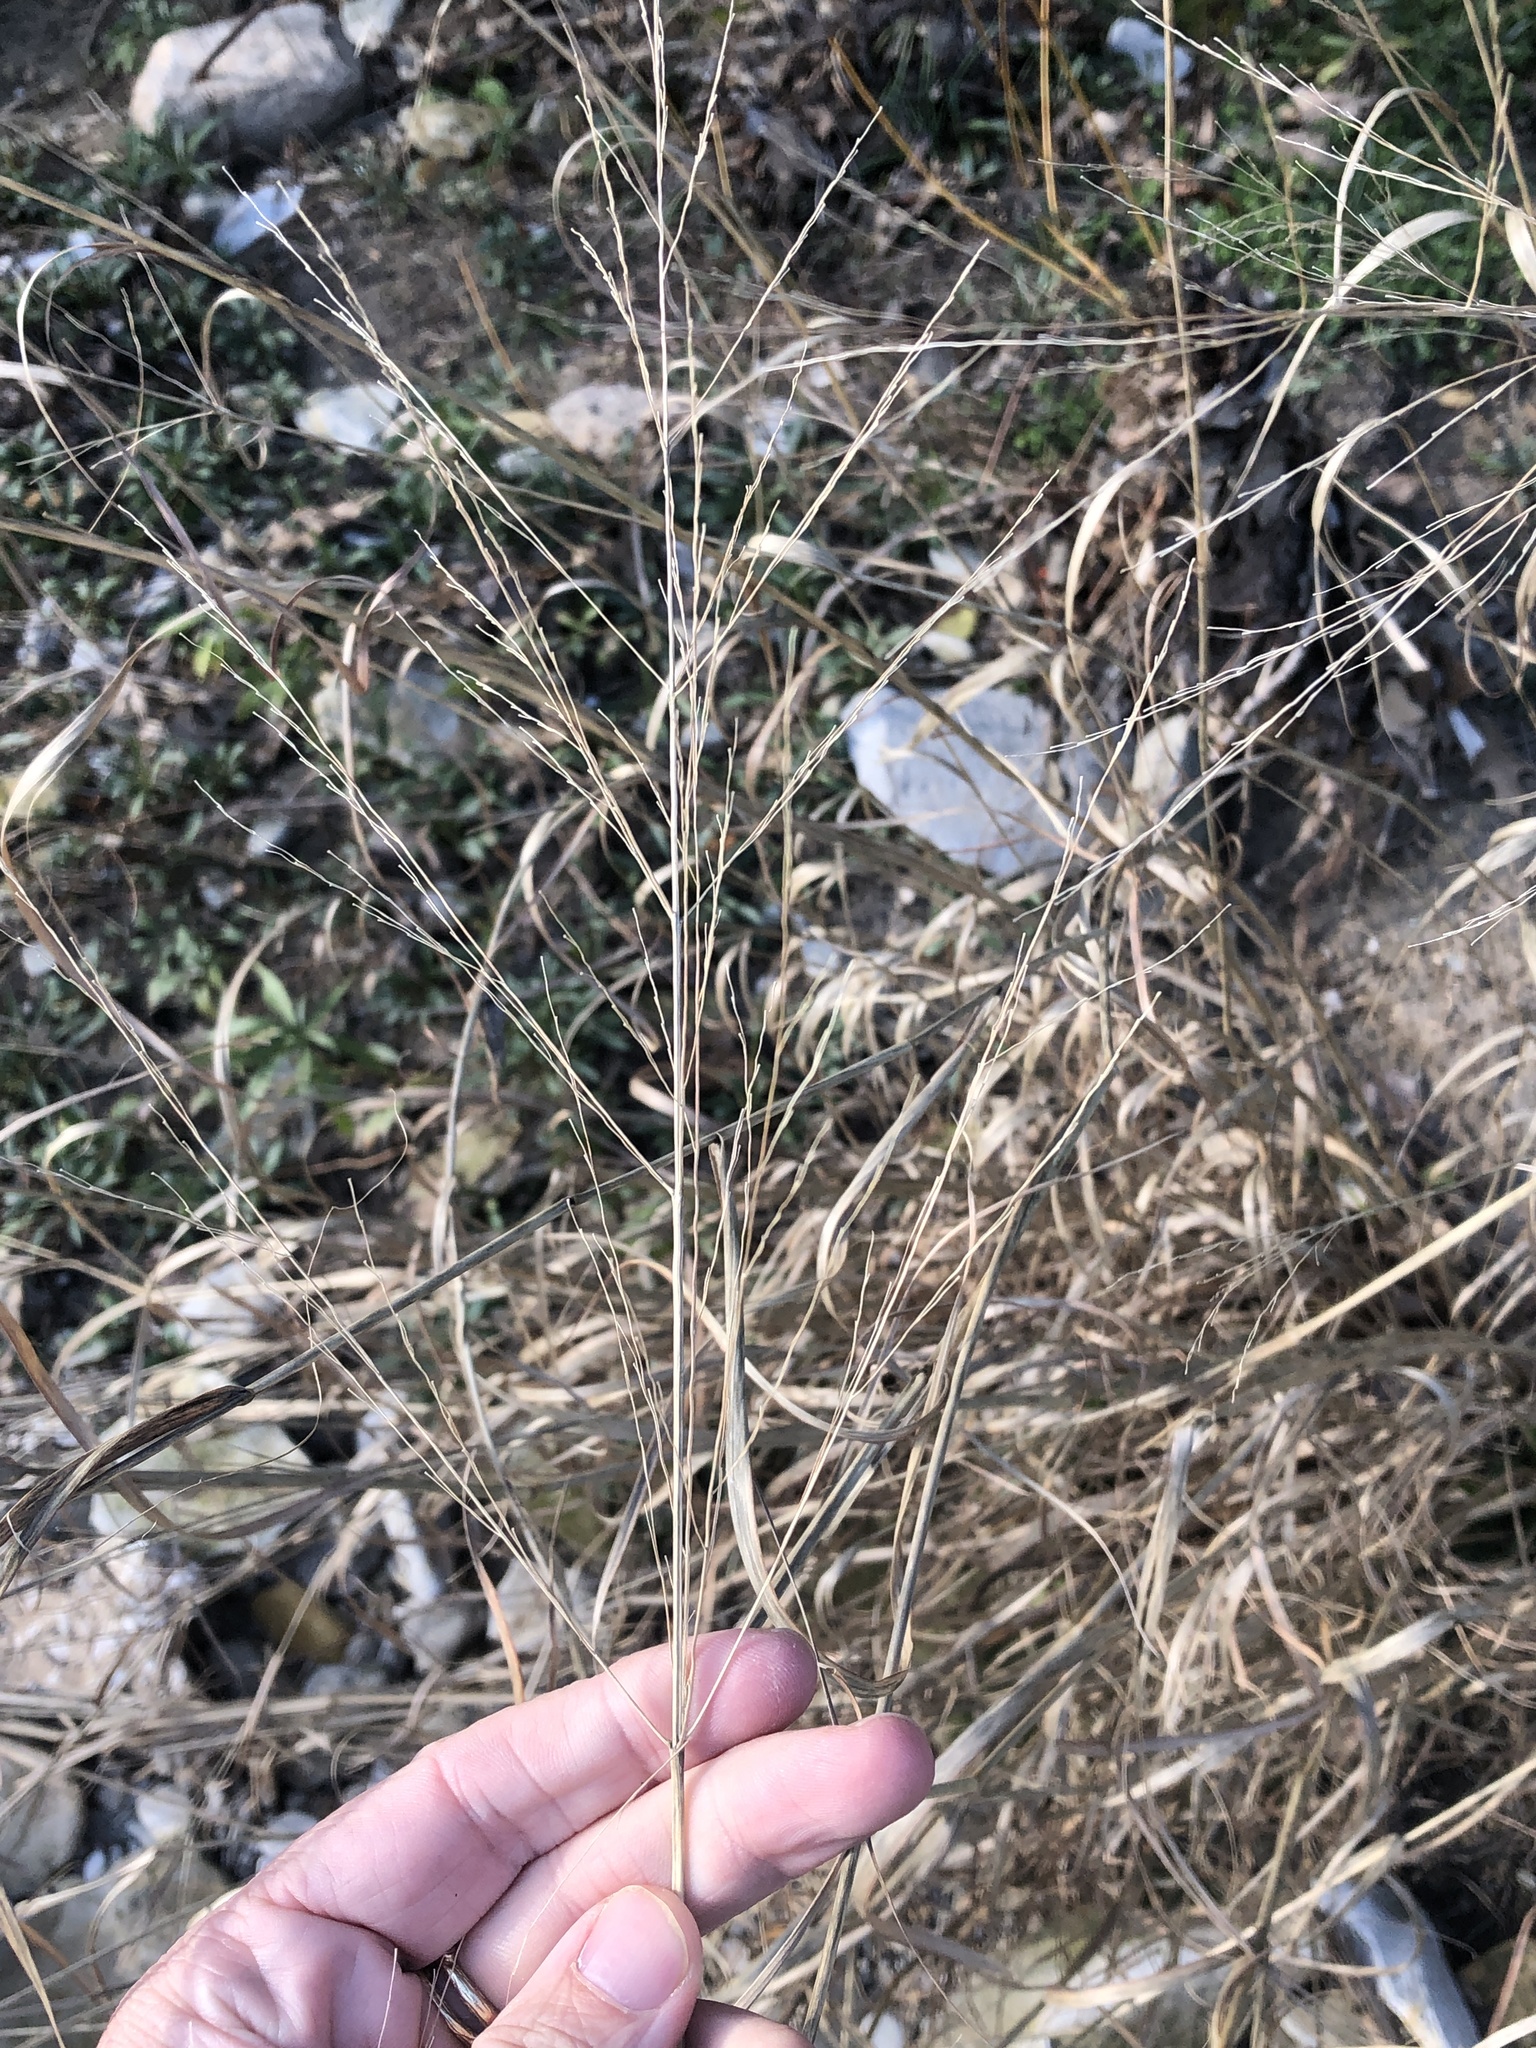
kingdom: Plantae
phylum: Tracheophyta
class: Liliopsida
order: Poales
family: Poaceae
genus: Panicum
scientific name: Panicum virgatum
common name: Switchgrass
